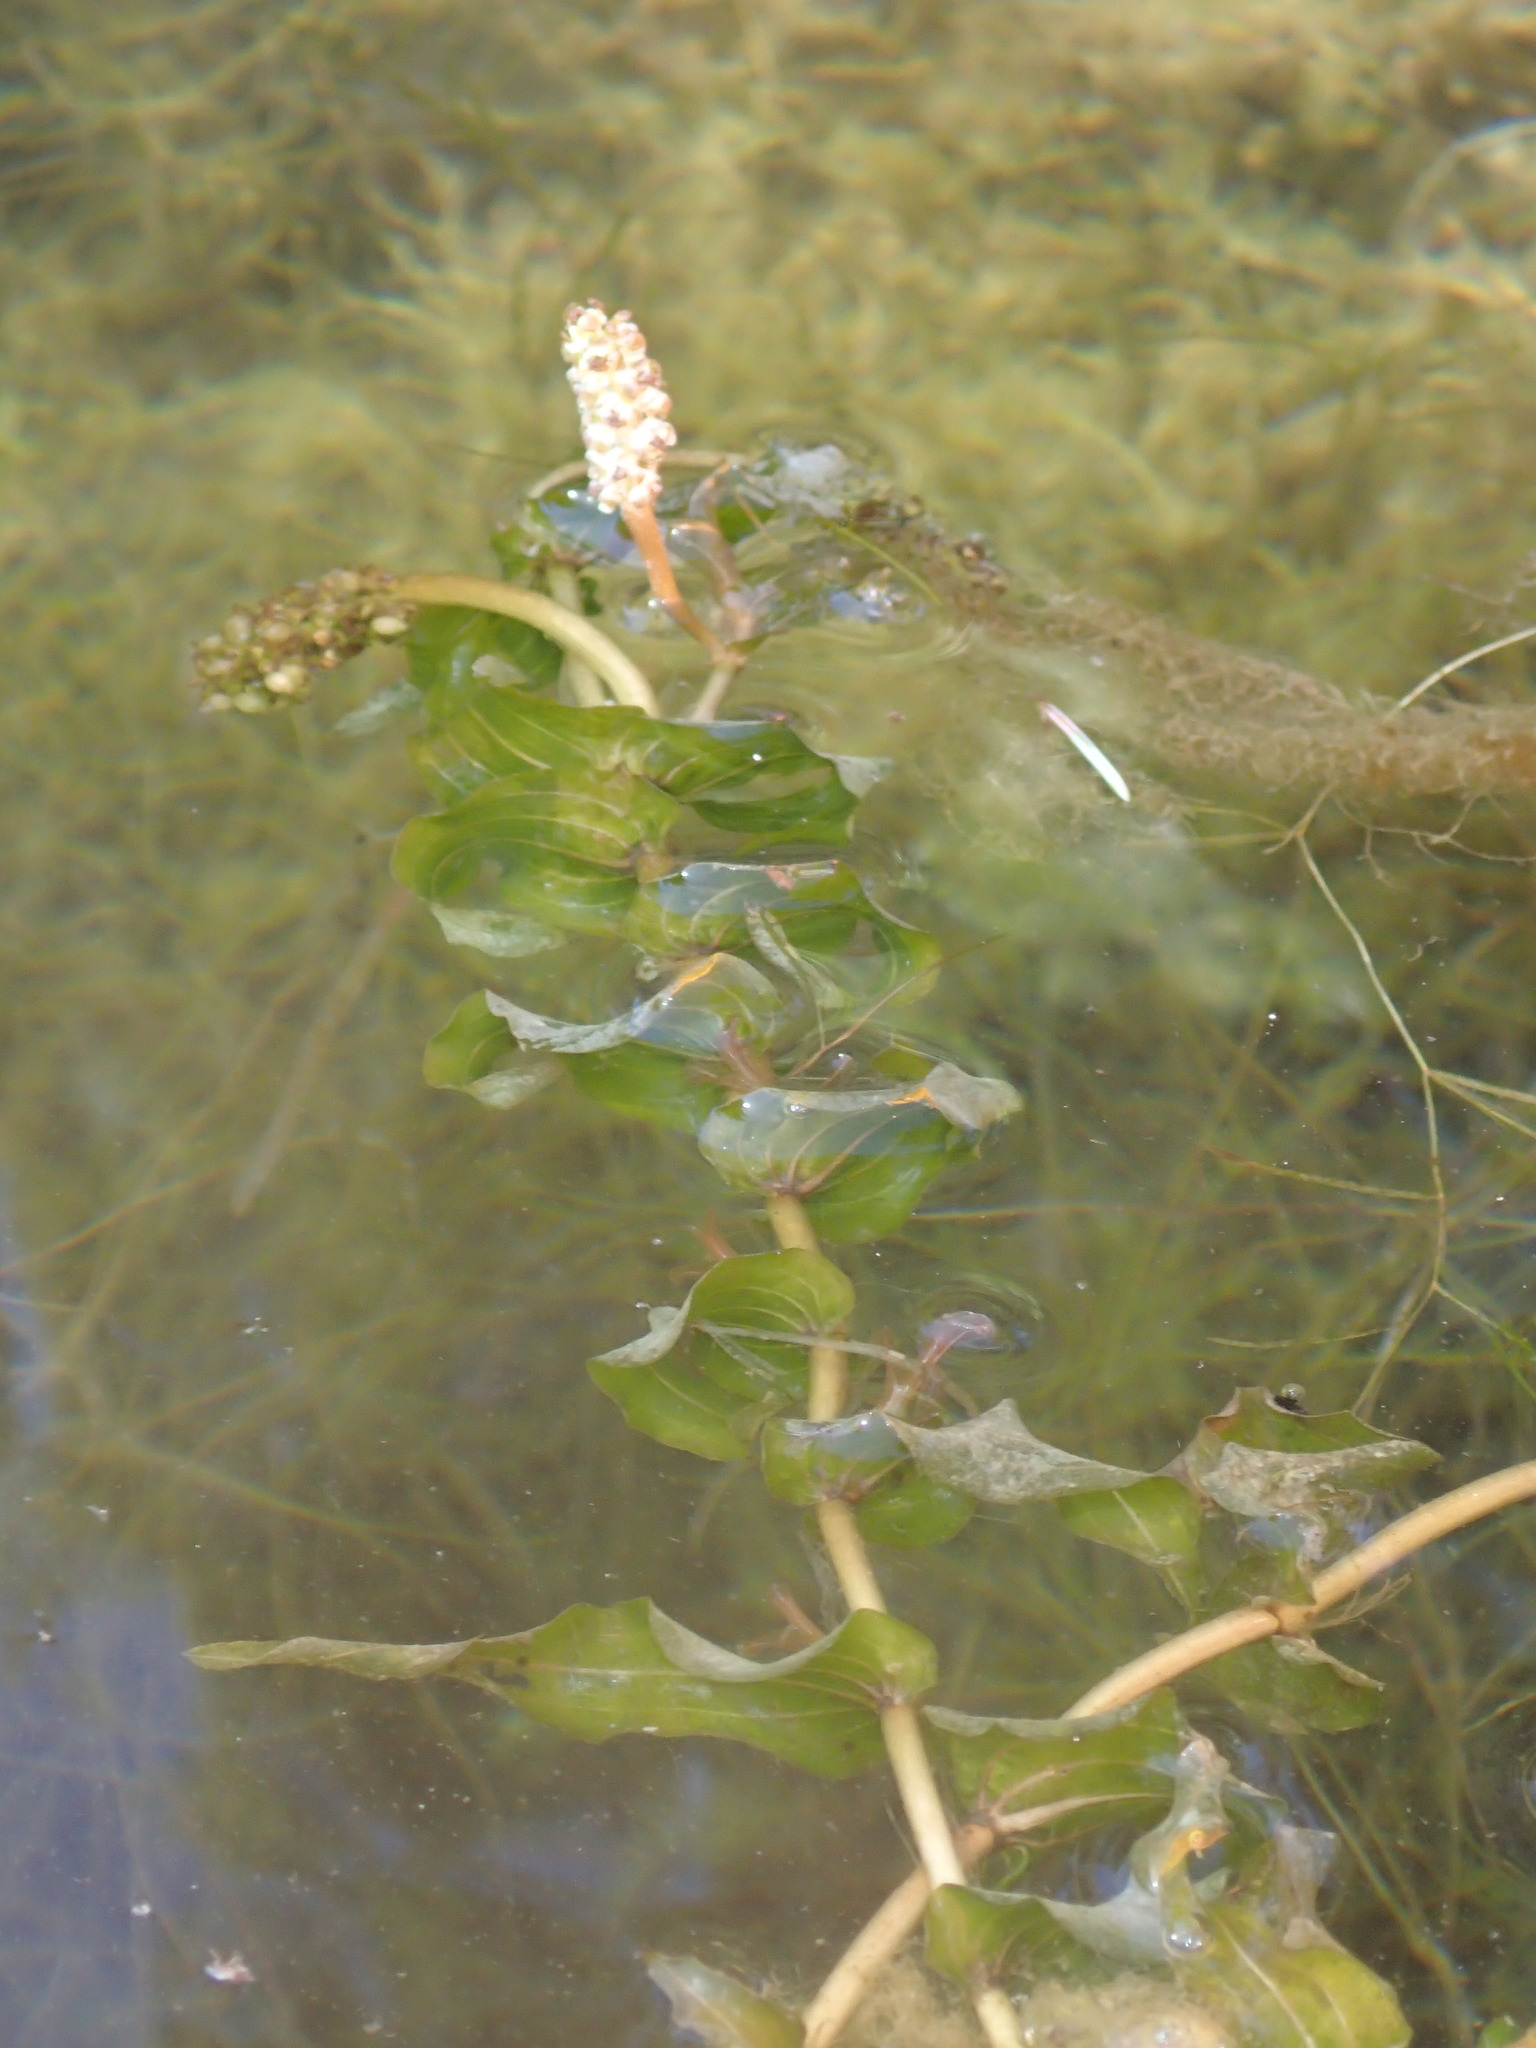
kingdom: Plantae
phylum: Tracheophyta
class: Liliopsida
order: Alismatales
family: Potamogetonaceae
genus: Potamogeton
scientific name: Potamogeton richardsonii
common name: Richardson's pondweed
